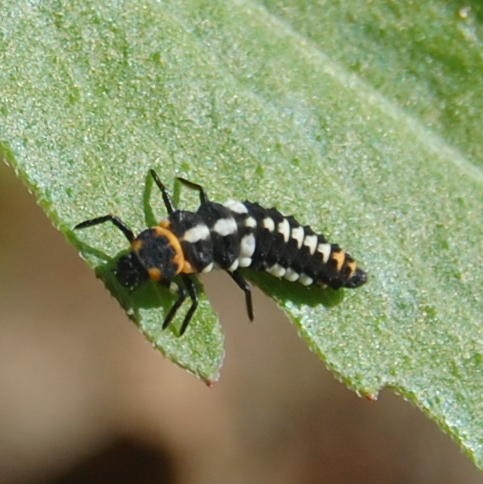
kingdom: Animalia
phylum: Arthropoda
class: Insecta
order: Coleoptera
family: Coccinellidae
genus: Eriopis
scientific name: Eriopis connexa
